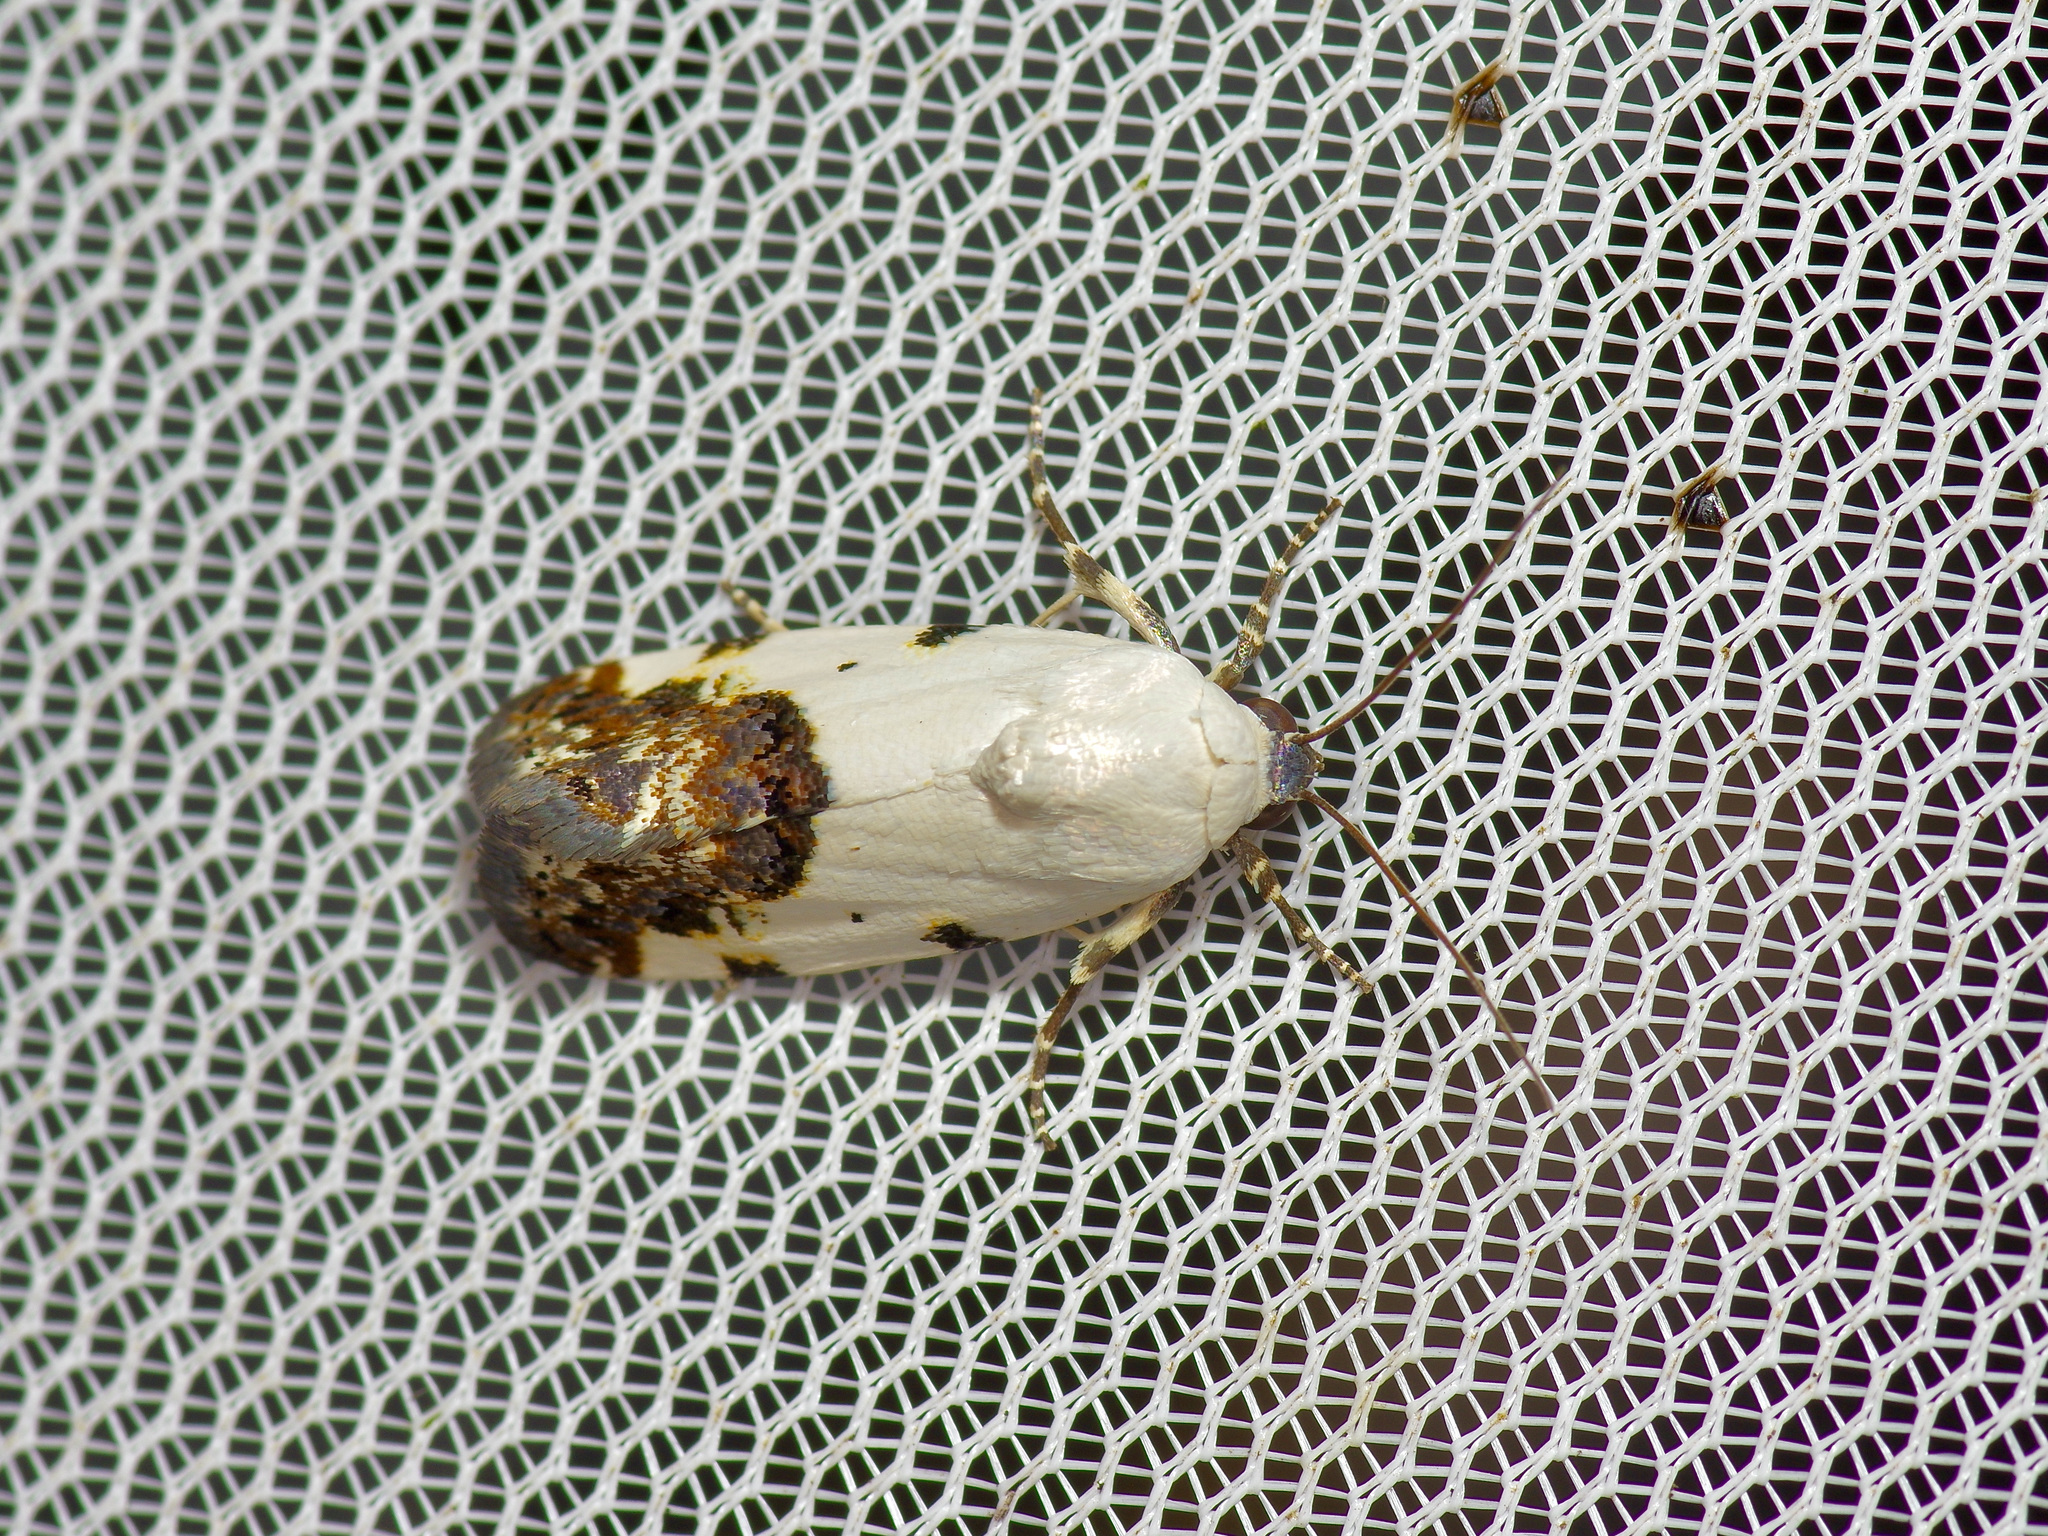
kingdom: Animalia
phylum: Arthropoda
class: Insecta
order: Lepidoptera
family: Noctuidae
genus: Acontia
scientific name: Acontia aprica
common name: Nun
